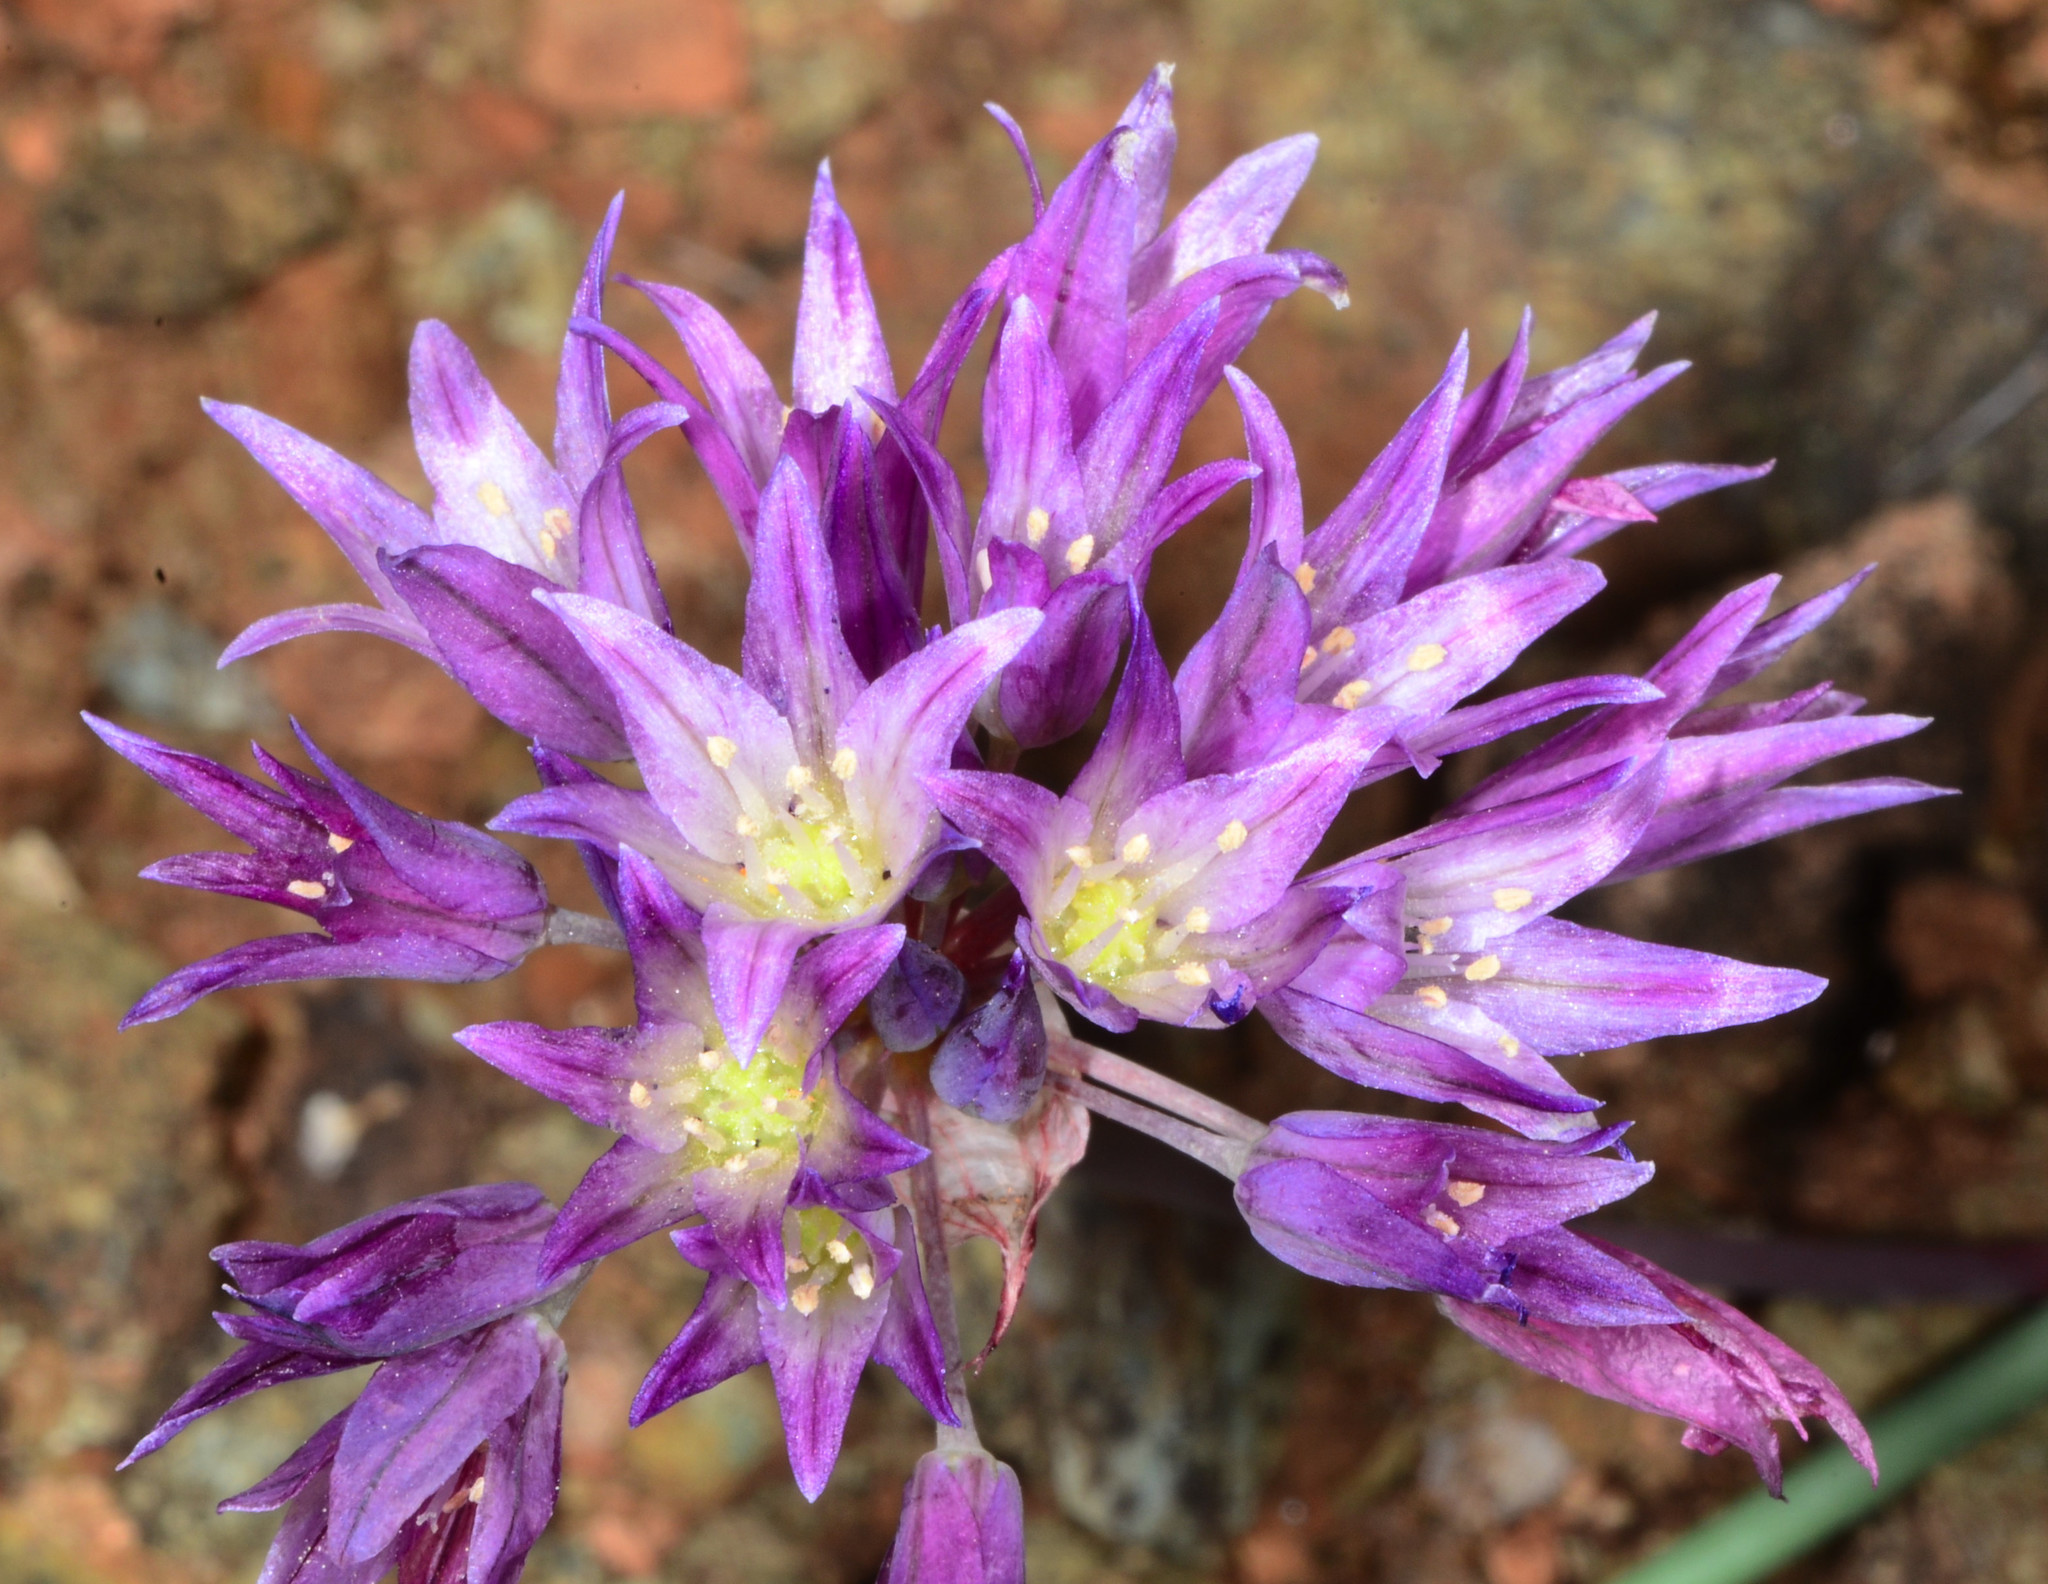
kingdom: Plantae
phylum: Tracheophyta
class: Liliopsida
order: Asparagales
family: Amaryllidaceae
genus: Allium
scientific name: Allium fimbriatum
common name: Fringed onion
